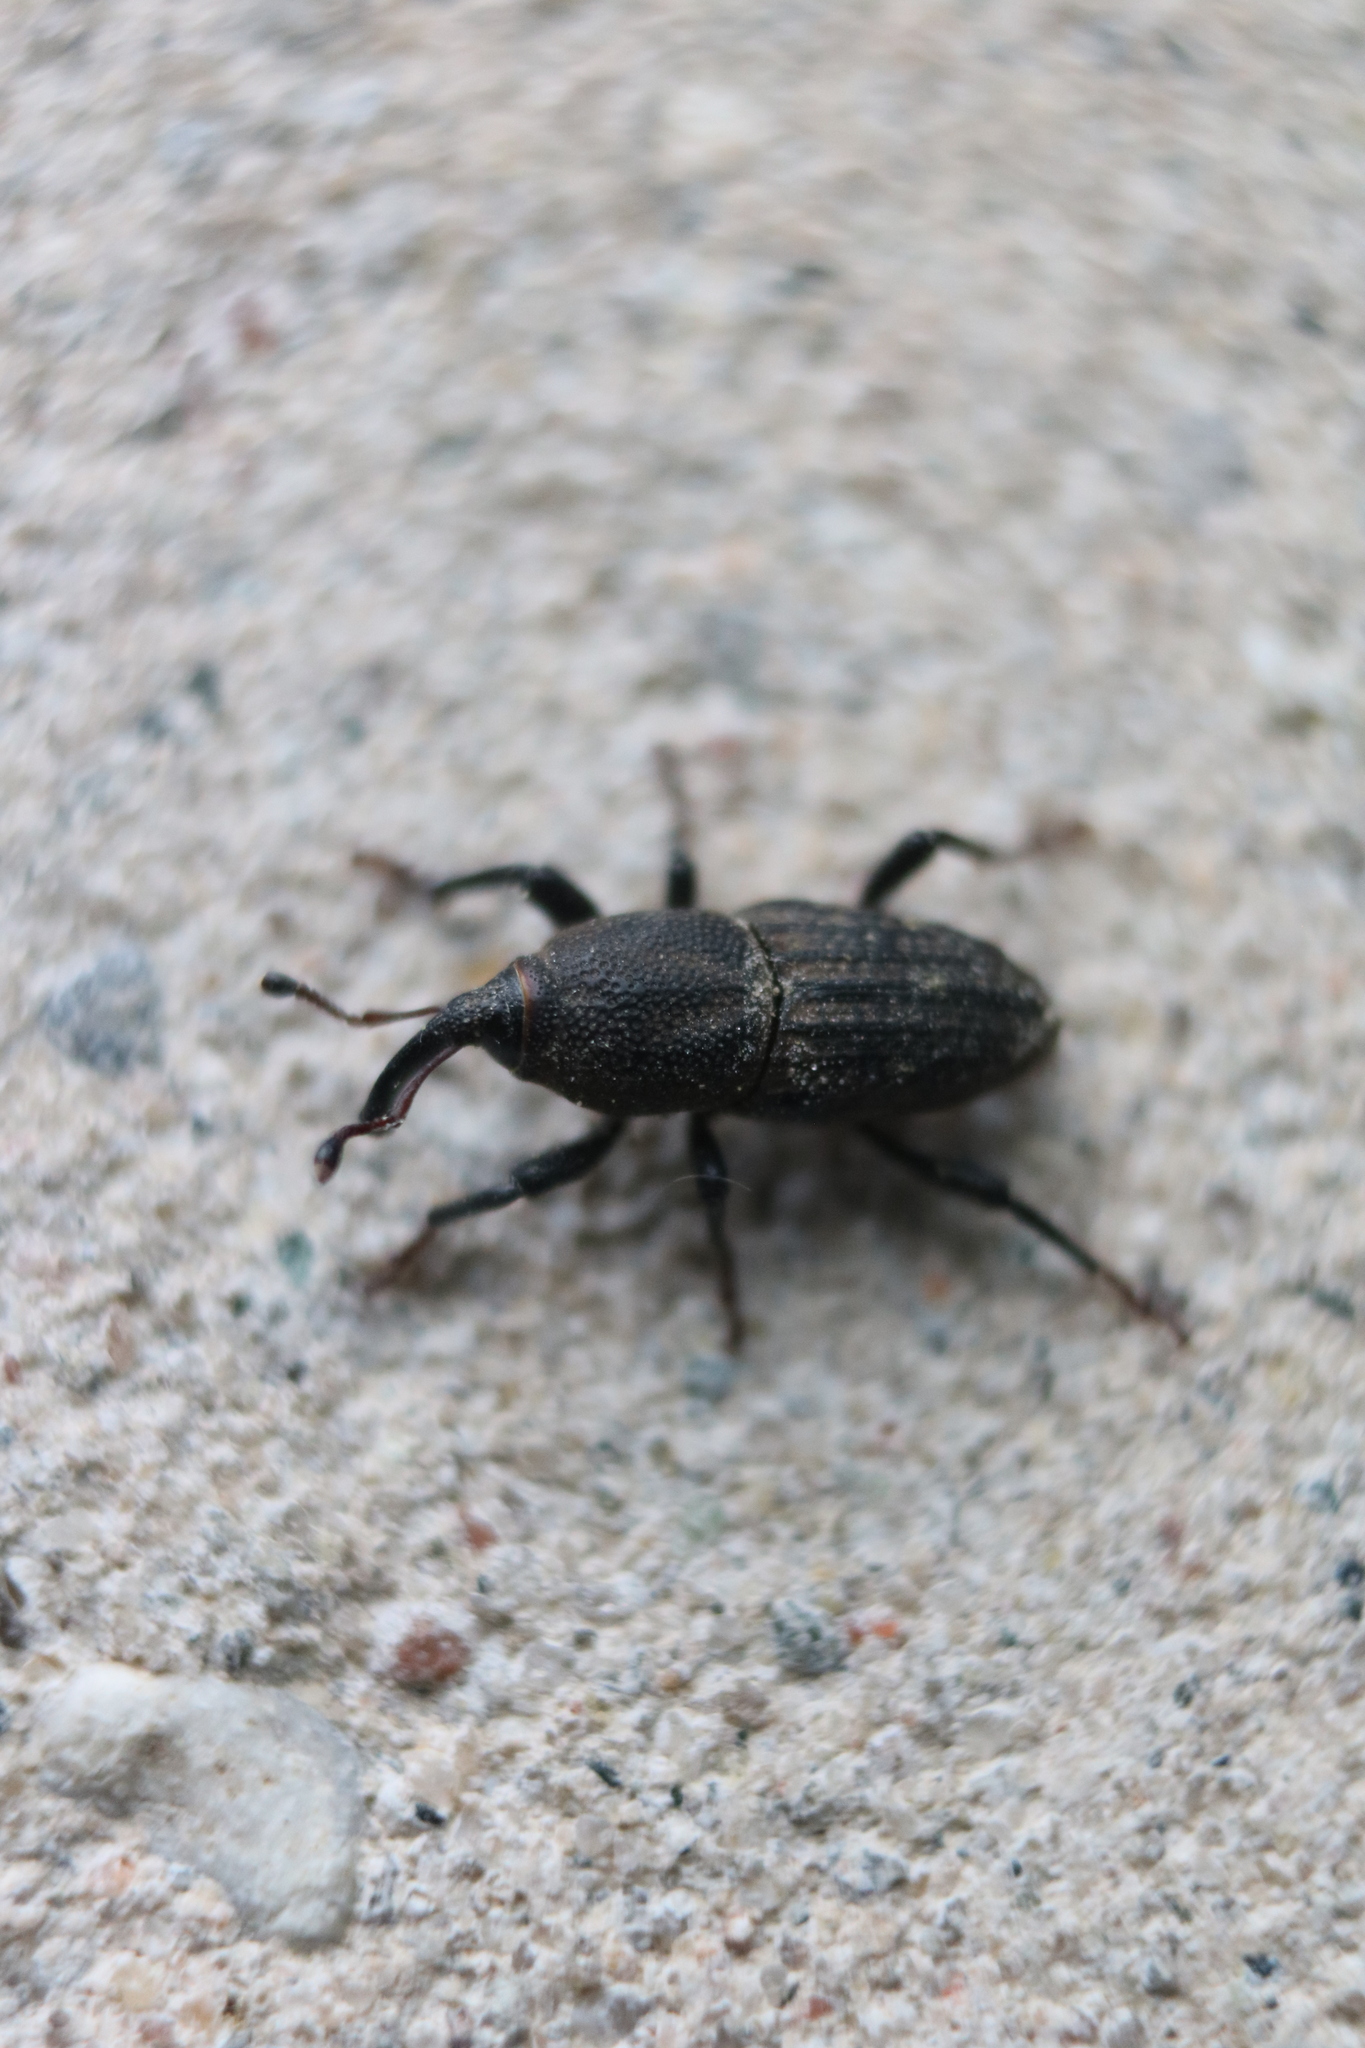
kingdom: Animalia
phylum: Arthropoda
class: Insecta
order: Coleoptera
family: Dryophthoridae
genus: Sphenophorus
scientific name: Sphenophorus interstitialis
